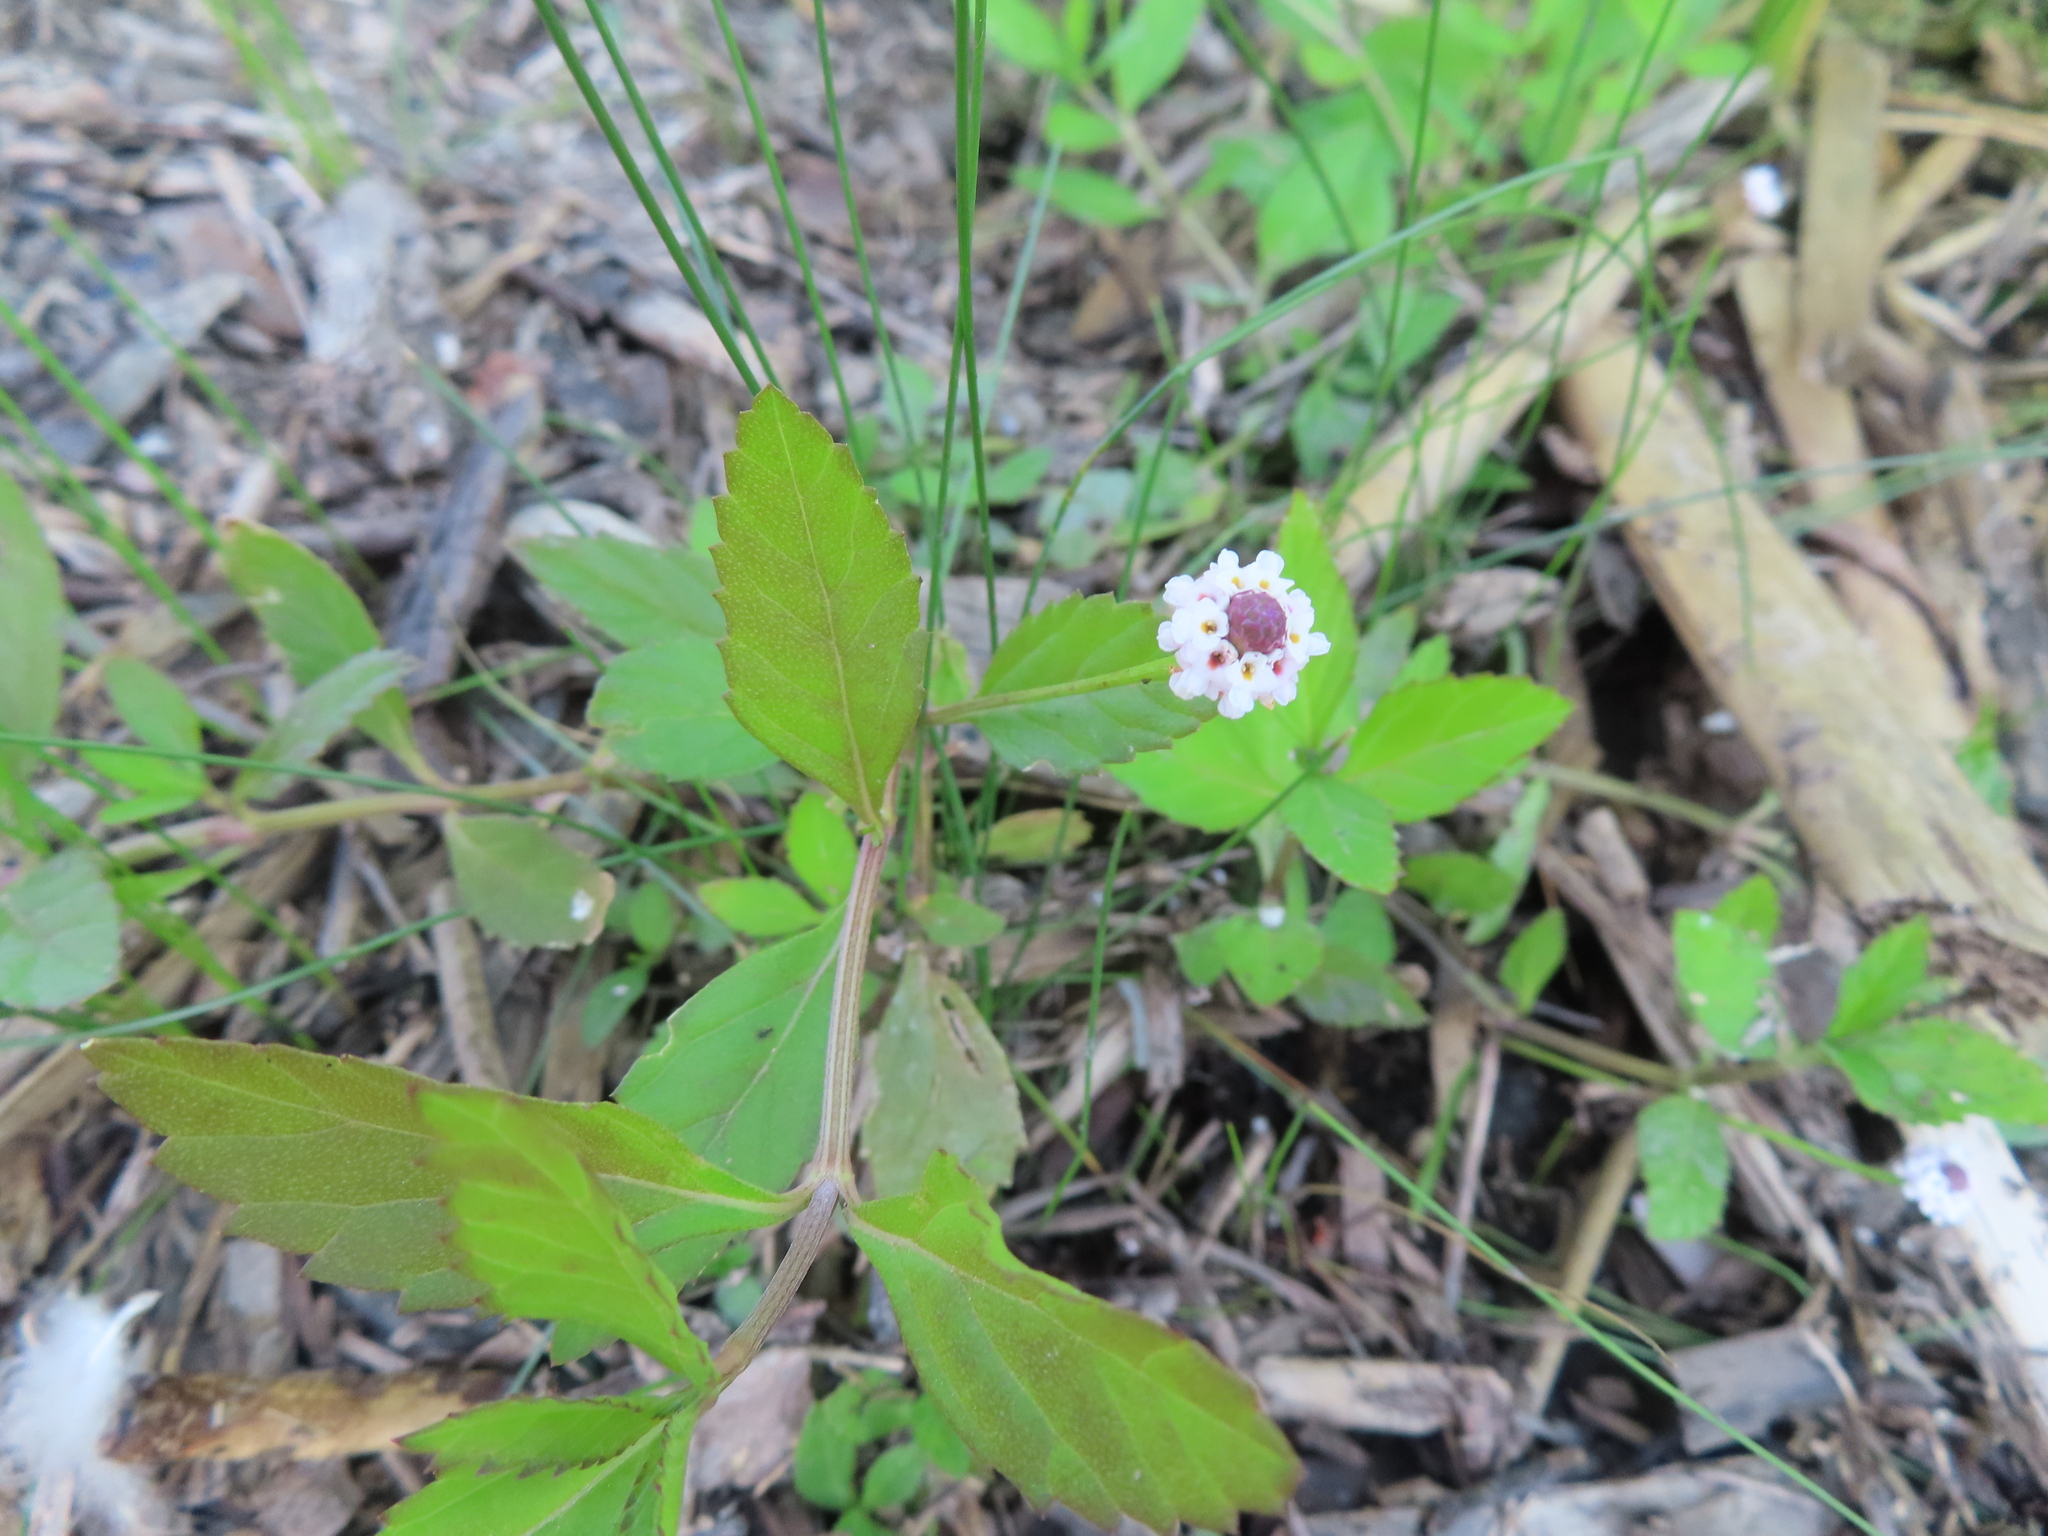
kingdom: Plantae
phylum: Tracheophyta
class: Magnoliopsida
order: Lamiales
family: Verbenaceae
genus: Phyla
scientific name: Phyla lanceolata
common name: Northern fogfruit
